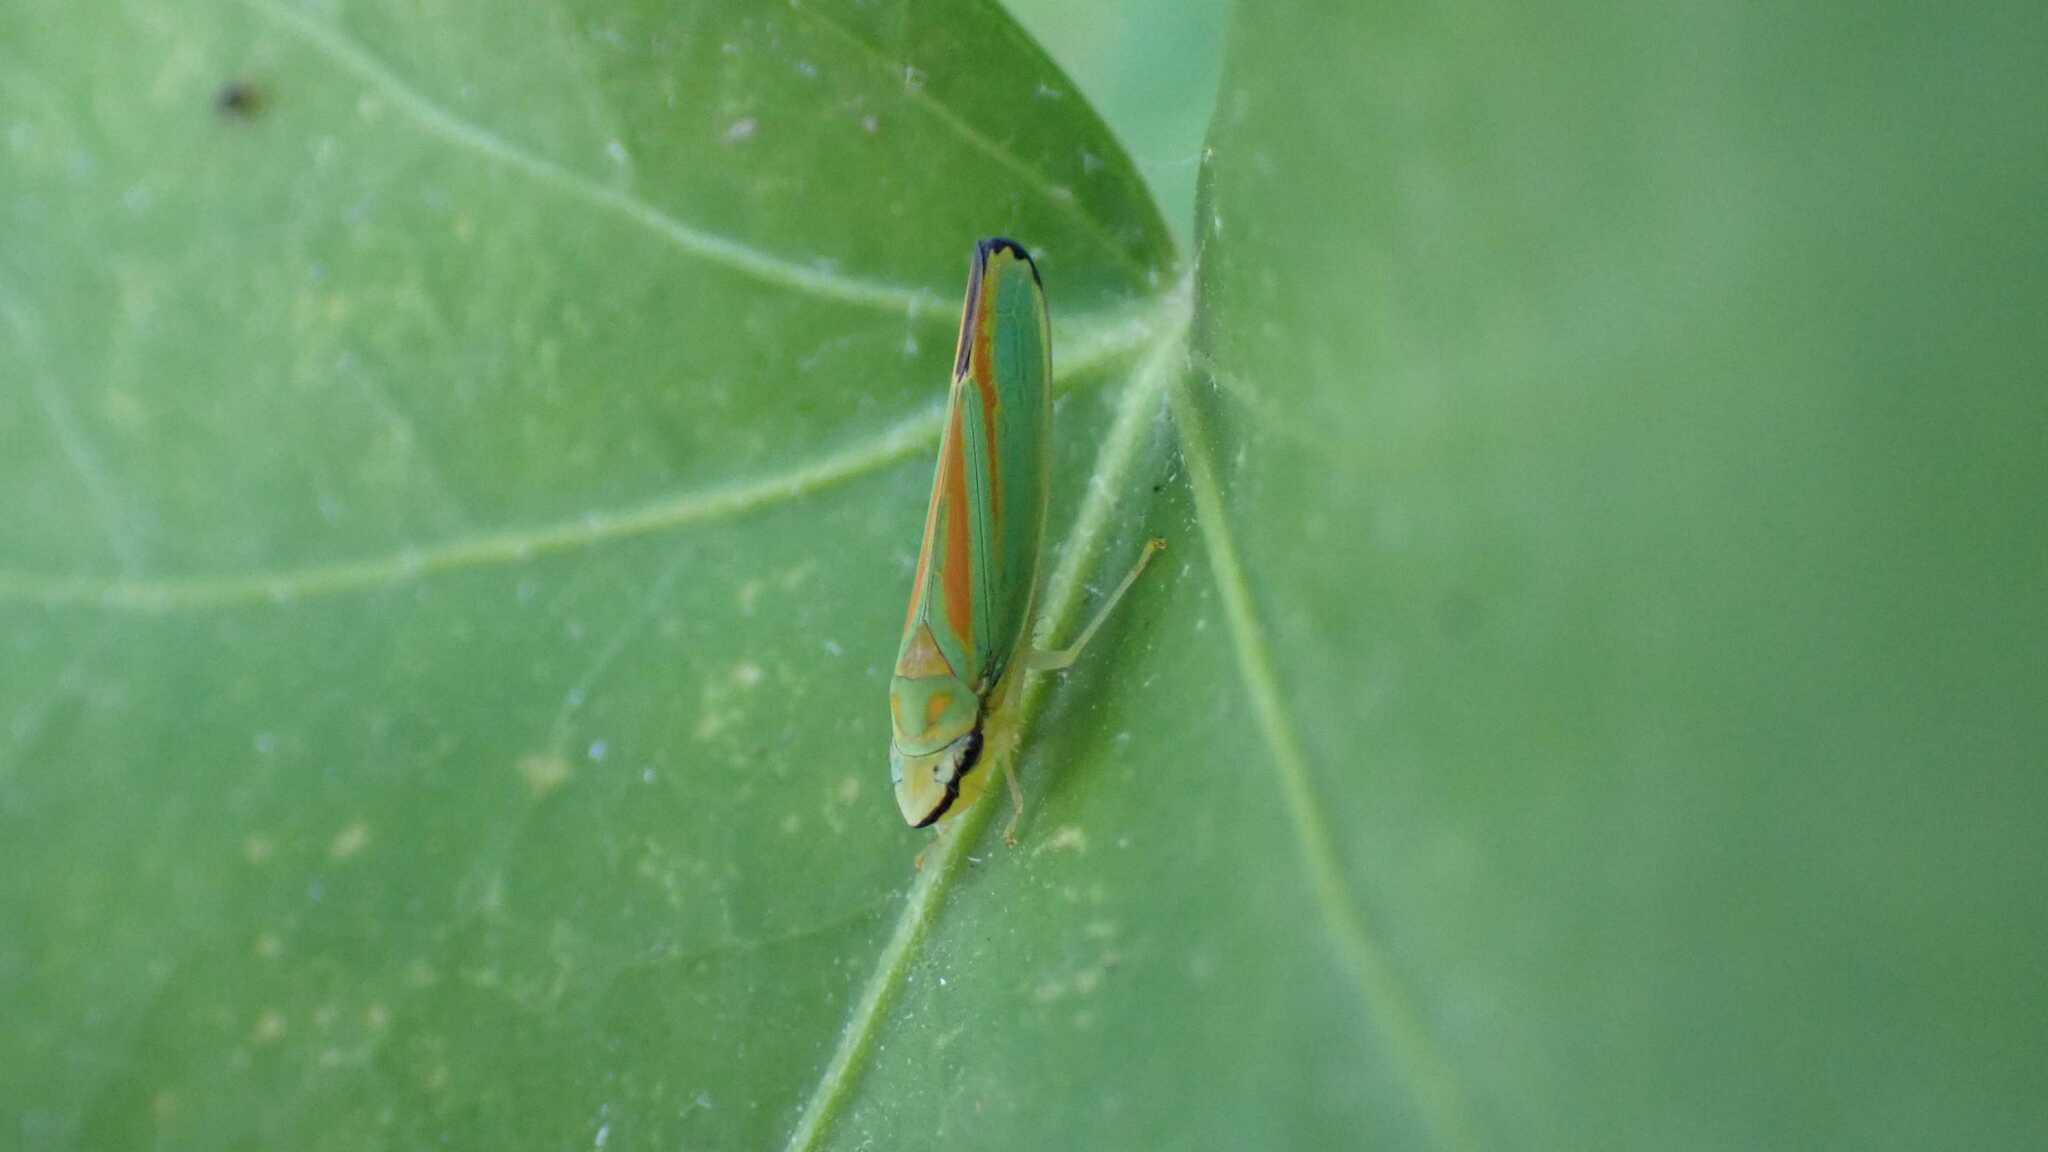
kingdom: Animalia
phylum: Arthropoda
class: Insecta
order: Hemiptera
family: Cicadellidae
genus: Graphocephala
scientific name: Graphocephala fennahi
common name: Rhododendron leafhopper
